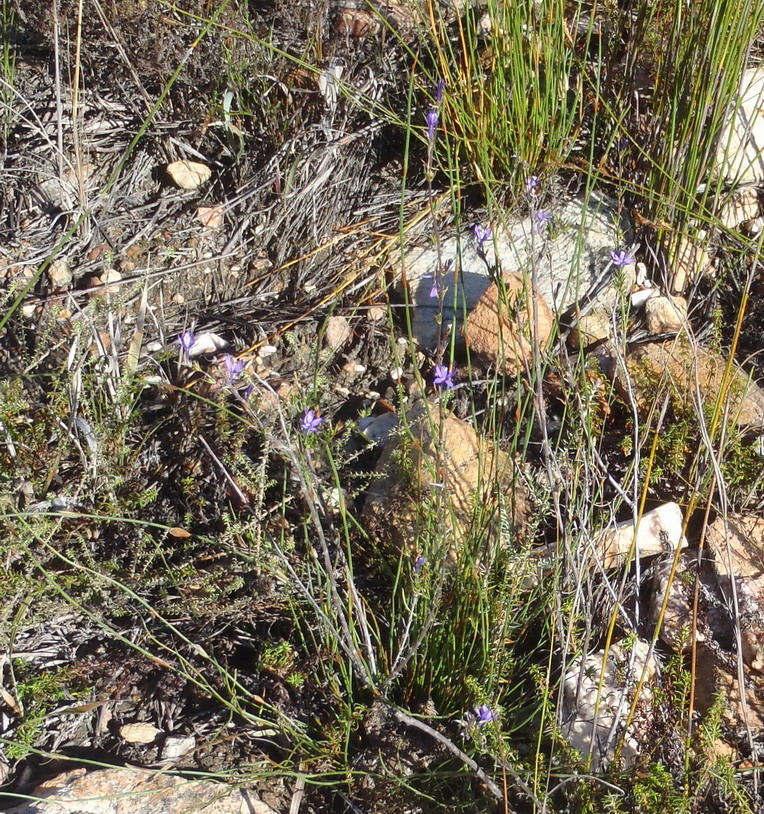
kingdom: Plantae
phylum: Tracheophyta
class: Magnoliopsida
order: Asterales
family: Campanulaceae
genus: Theilera
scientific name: Theilera guthriei
